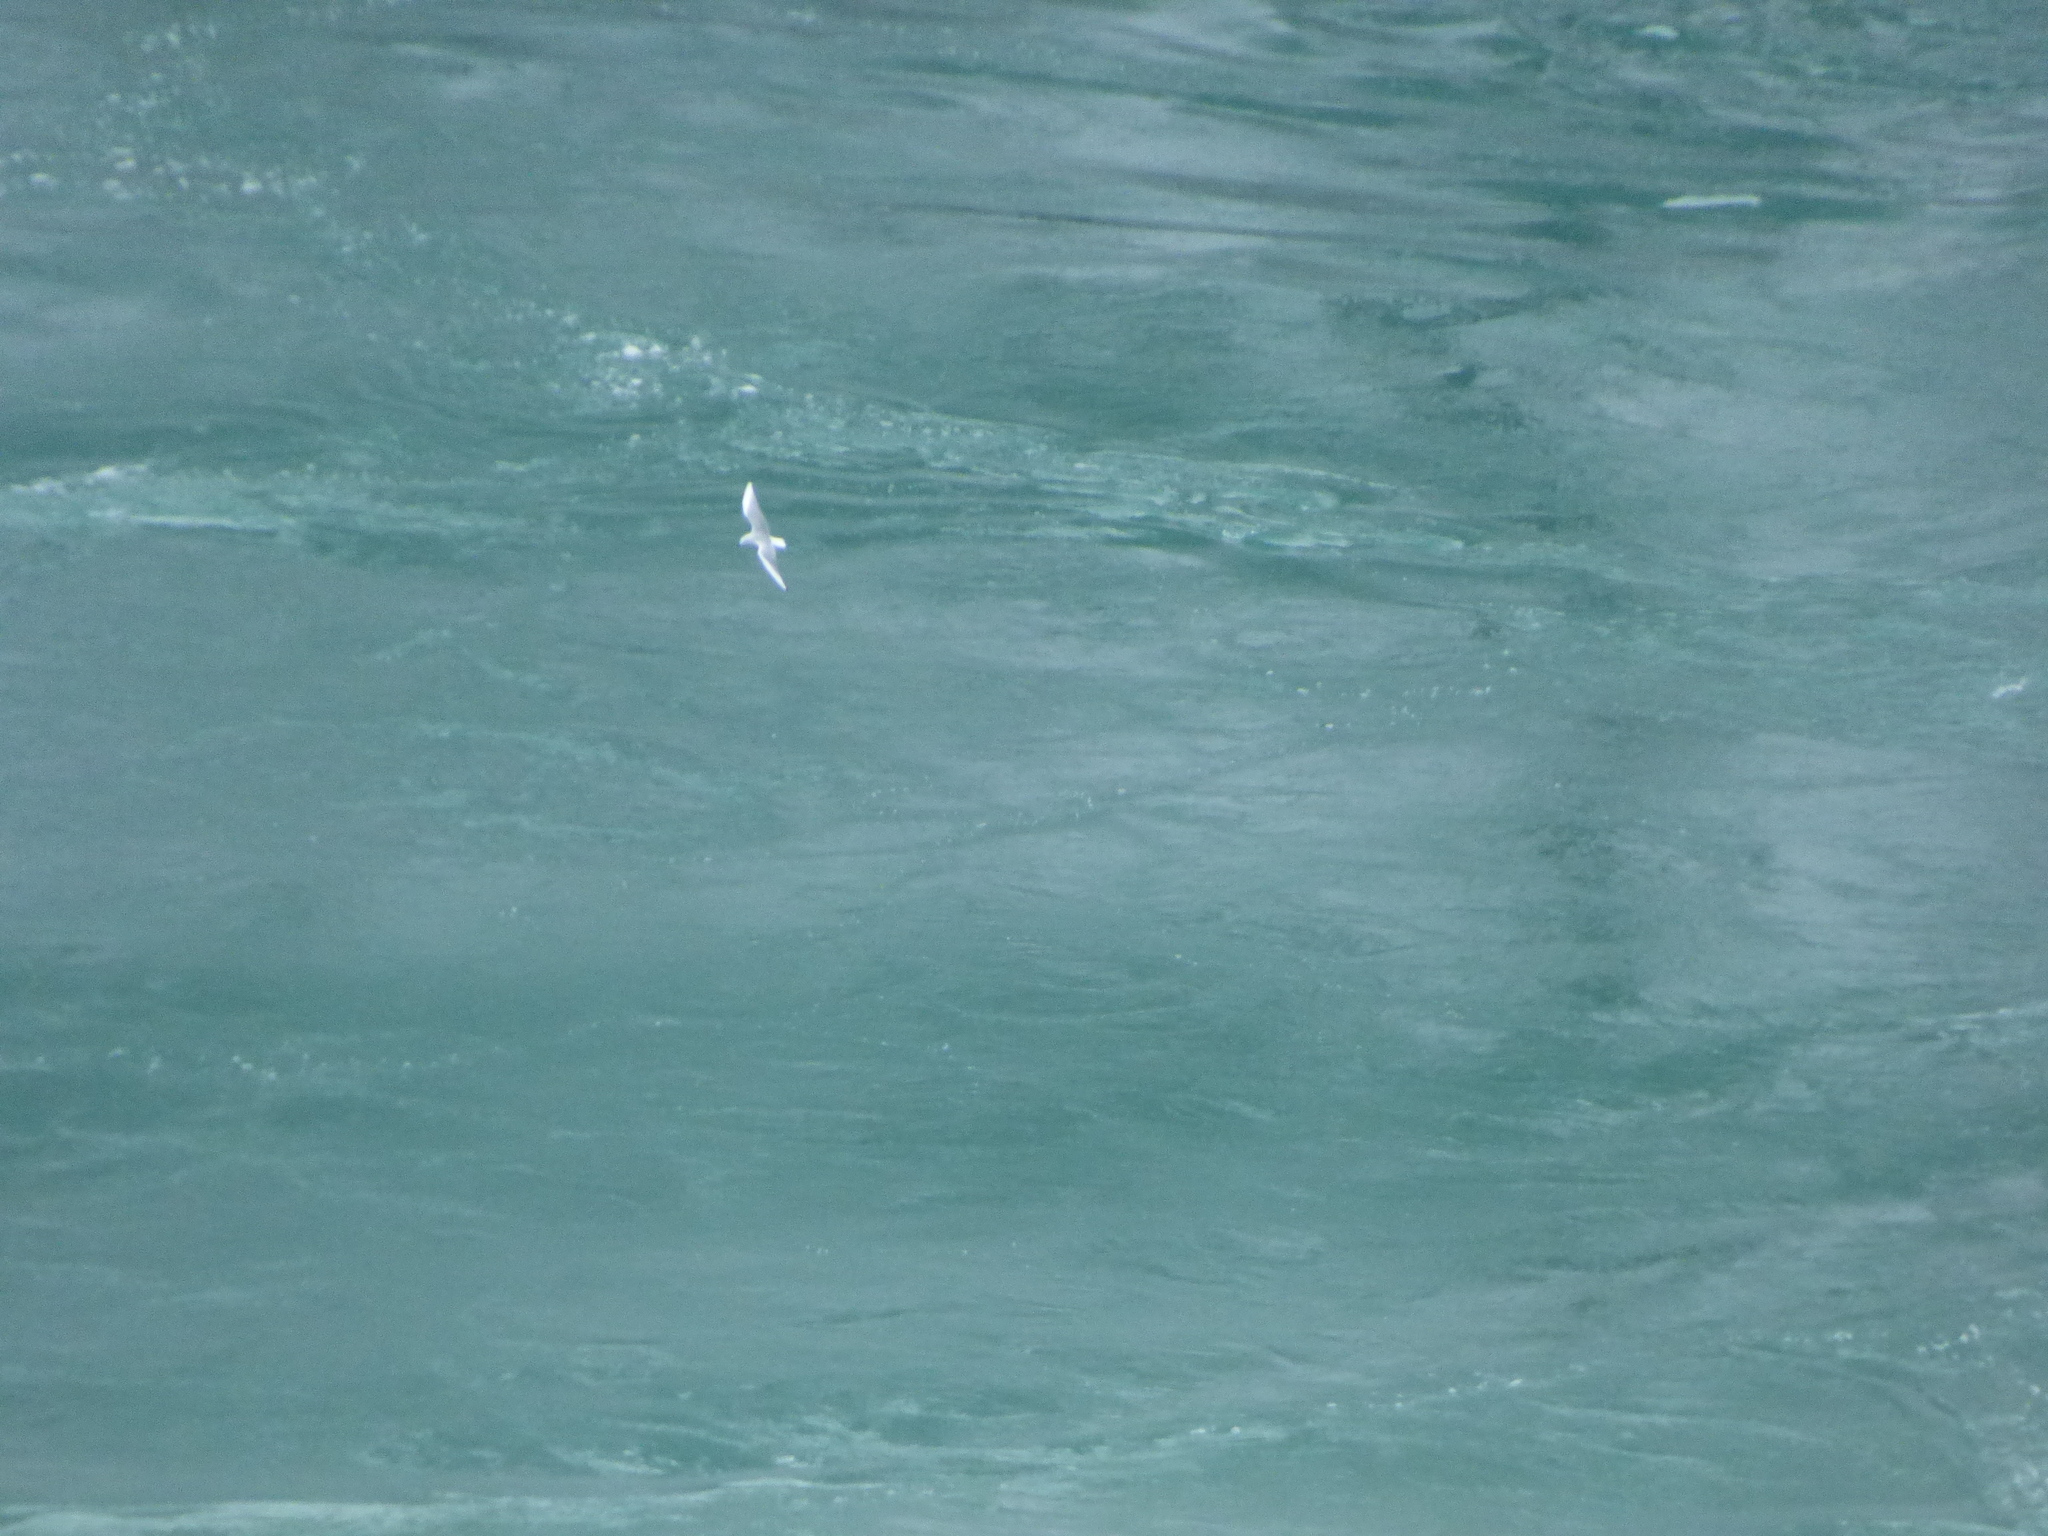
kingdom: Animalia
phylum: Chordata
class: Aves
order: Charadriiformes
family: Laridae
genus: Chroicocephalus
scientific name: Chroicocephalus philadelphia
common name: Bonaparte's gull
